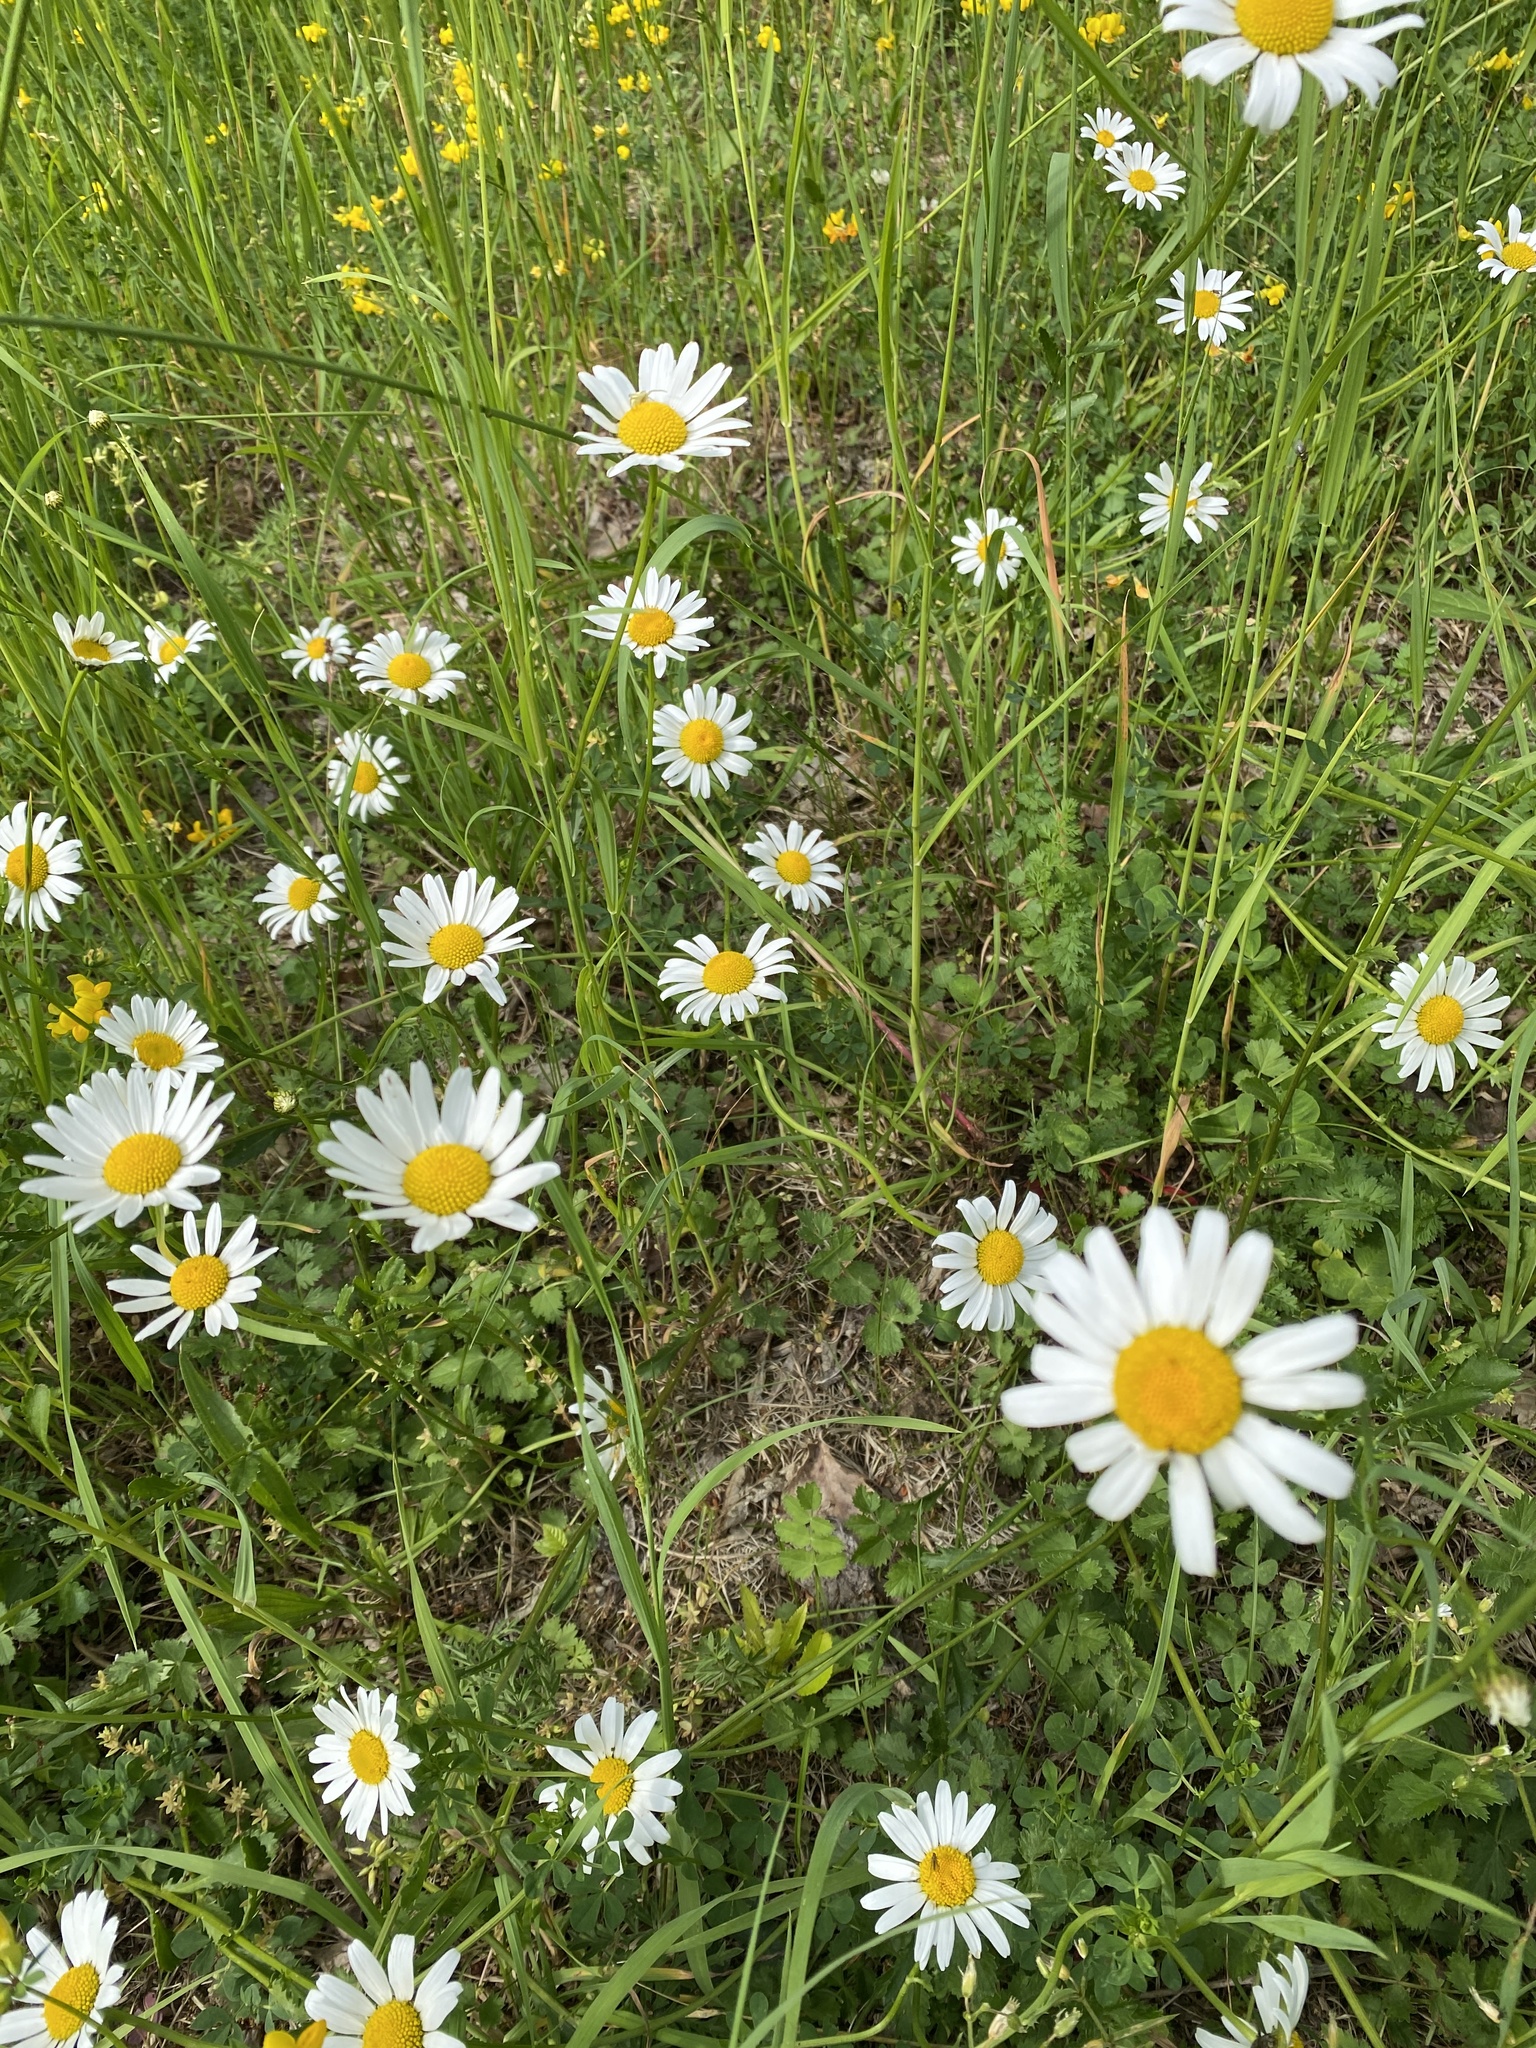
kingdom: Plantae
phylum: Tracheophyta
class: Magnoliopsida
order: Asterales
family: Asteraceae
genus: Leucanthemum
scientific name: Leucanthemum ircutianum
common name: Daisy
